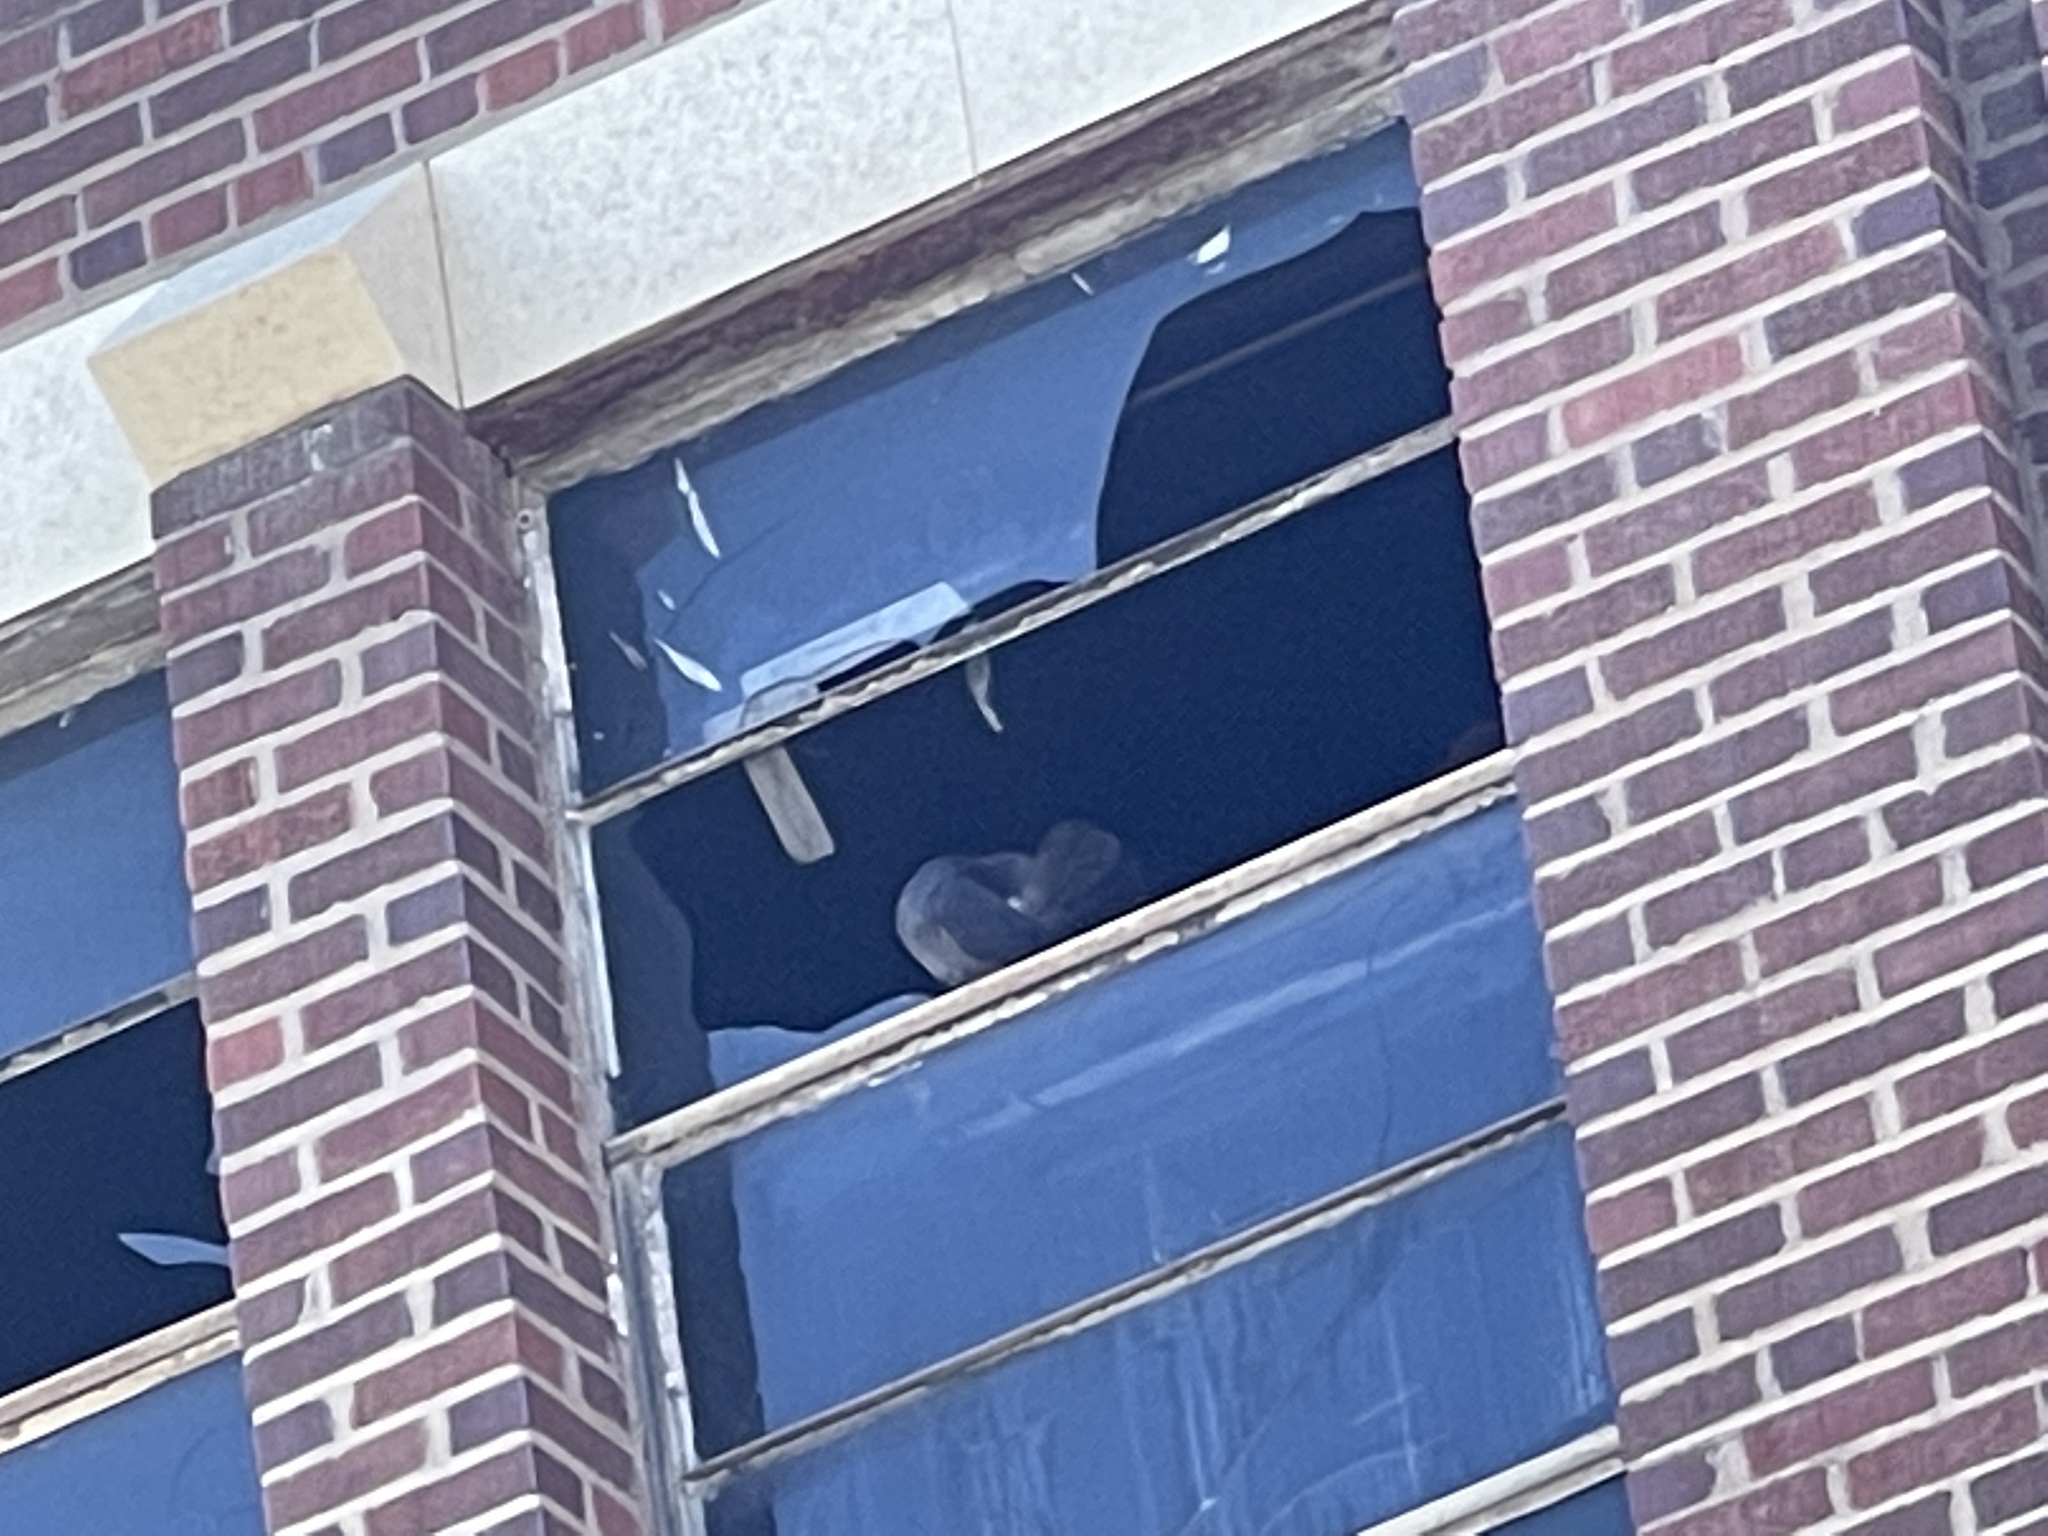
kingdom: Animalia
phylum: Chordata
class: Aves
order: Columbiformes
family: Columbidae
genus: Columba
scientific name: Columba livia
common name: Rock pigeon
